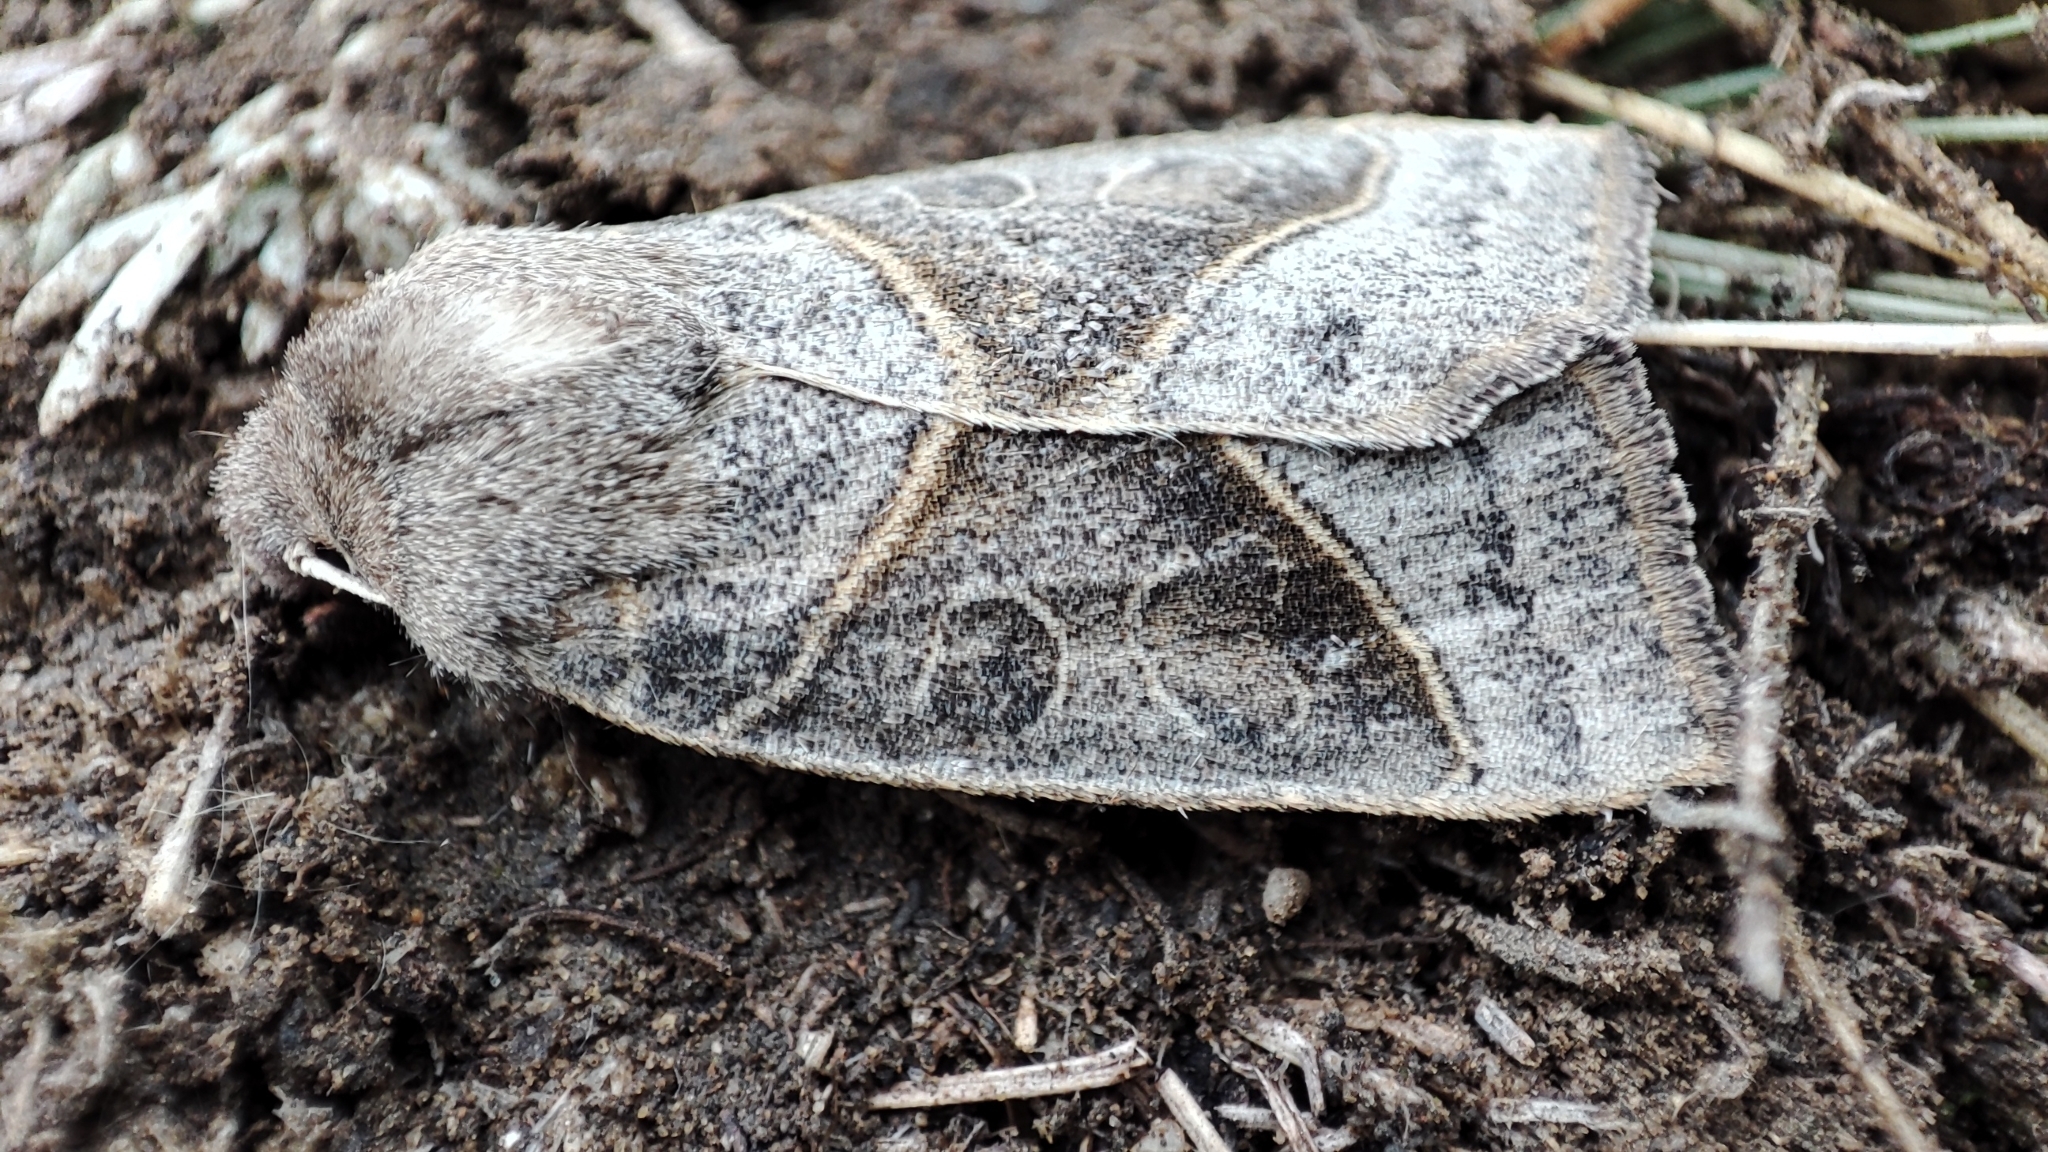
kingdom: Animalia
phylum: Arthropoda
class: Insecta
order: Lepidoptera
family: Noctuidae
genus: Mesogona
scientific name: Mesogona oxalina
